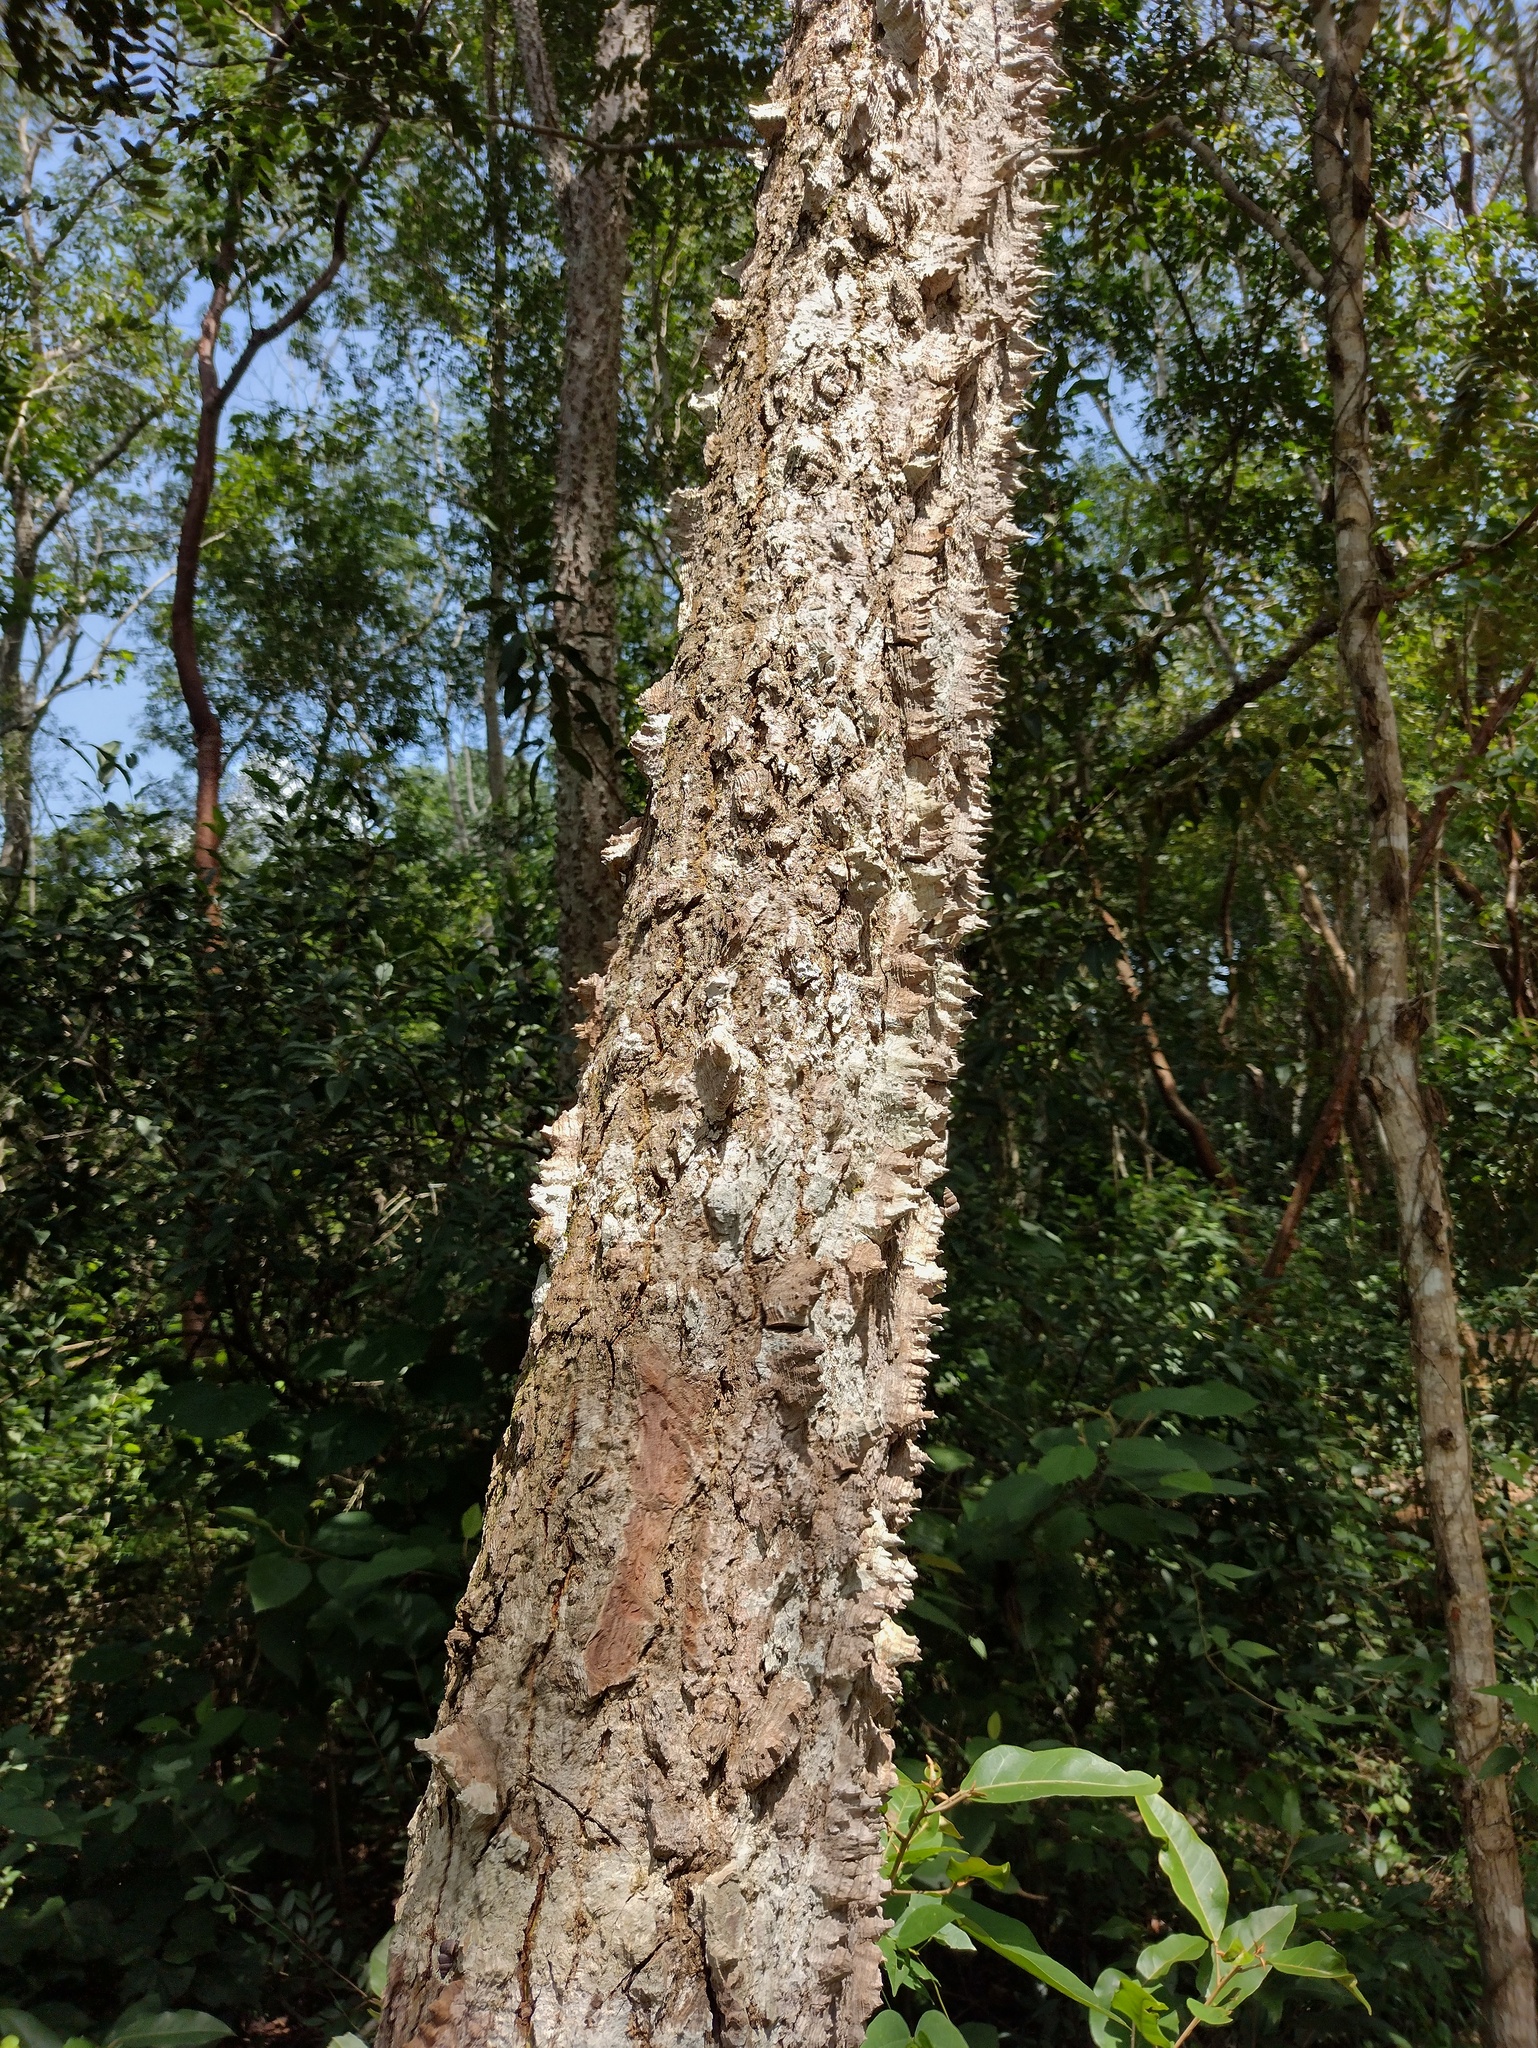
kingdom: Plantae
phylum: Tracheophyta
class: Magnoliopsida
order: Malvales
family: Malvaceae
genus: Ceiba
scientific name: Ceiba schottii
